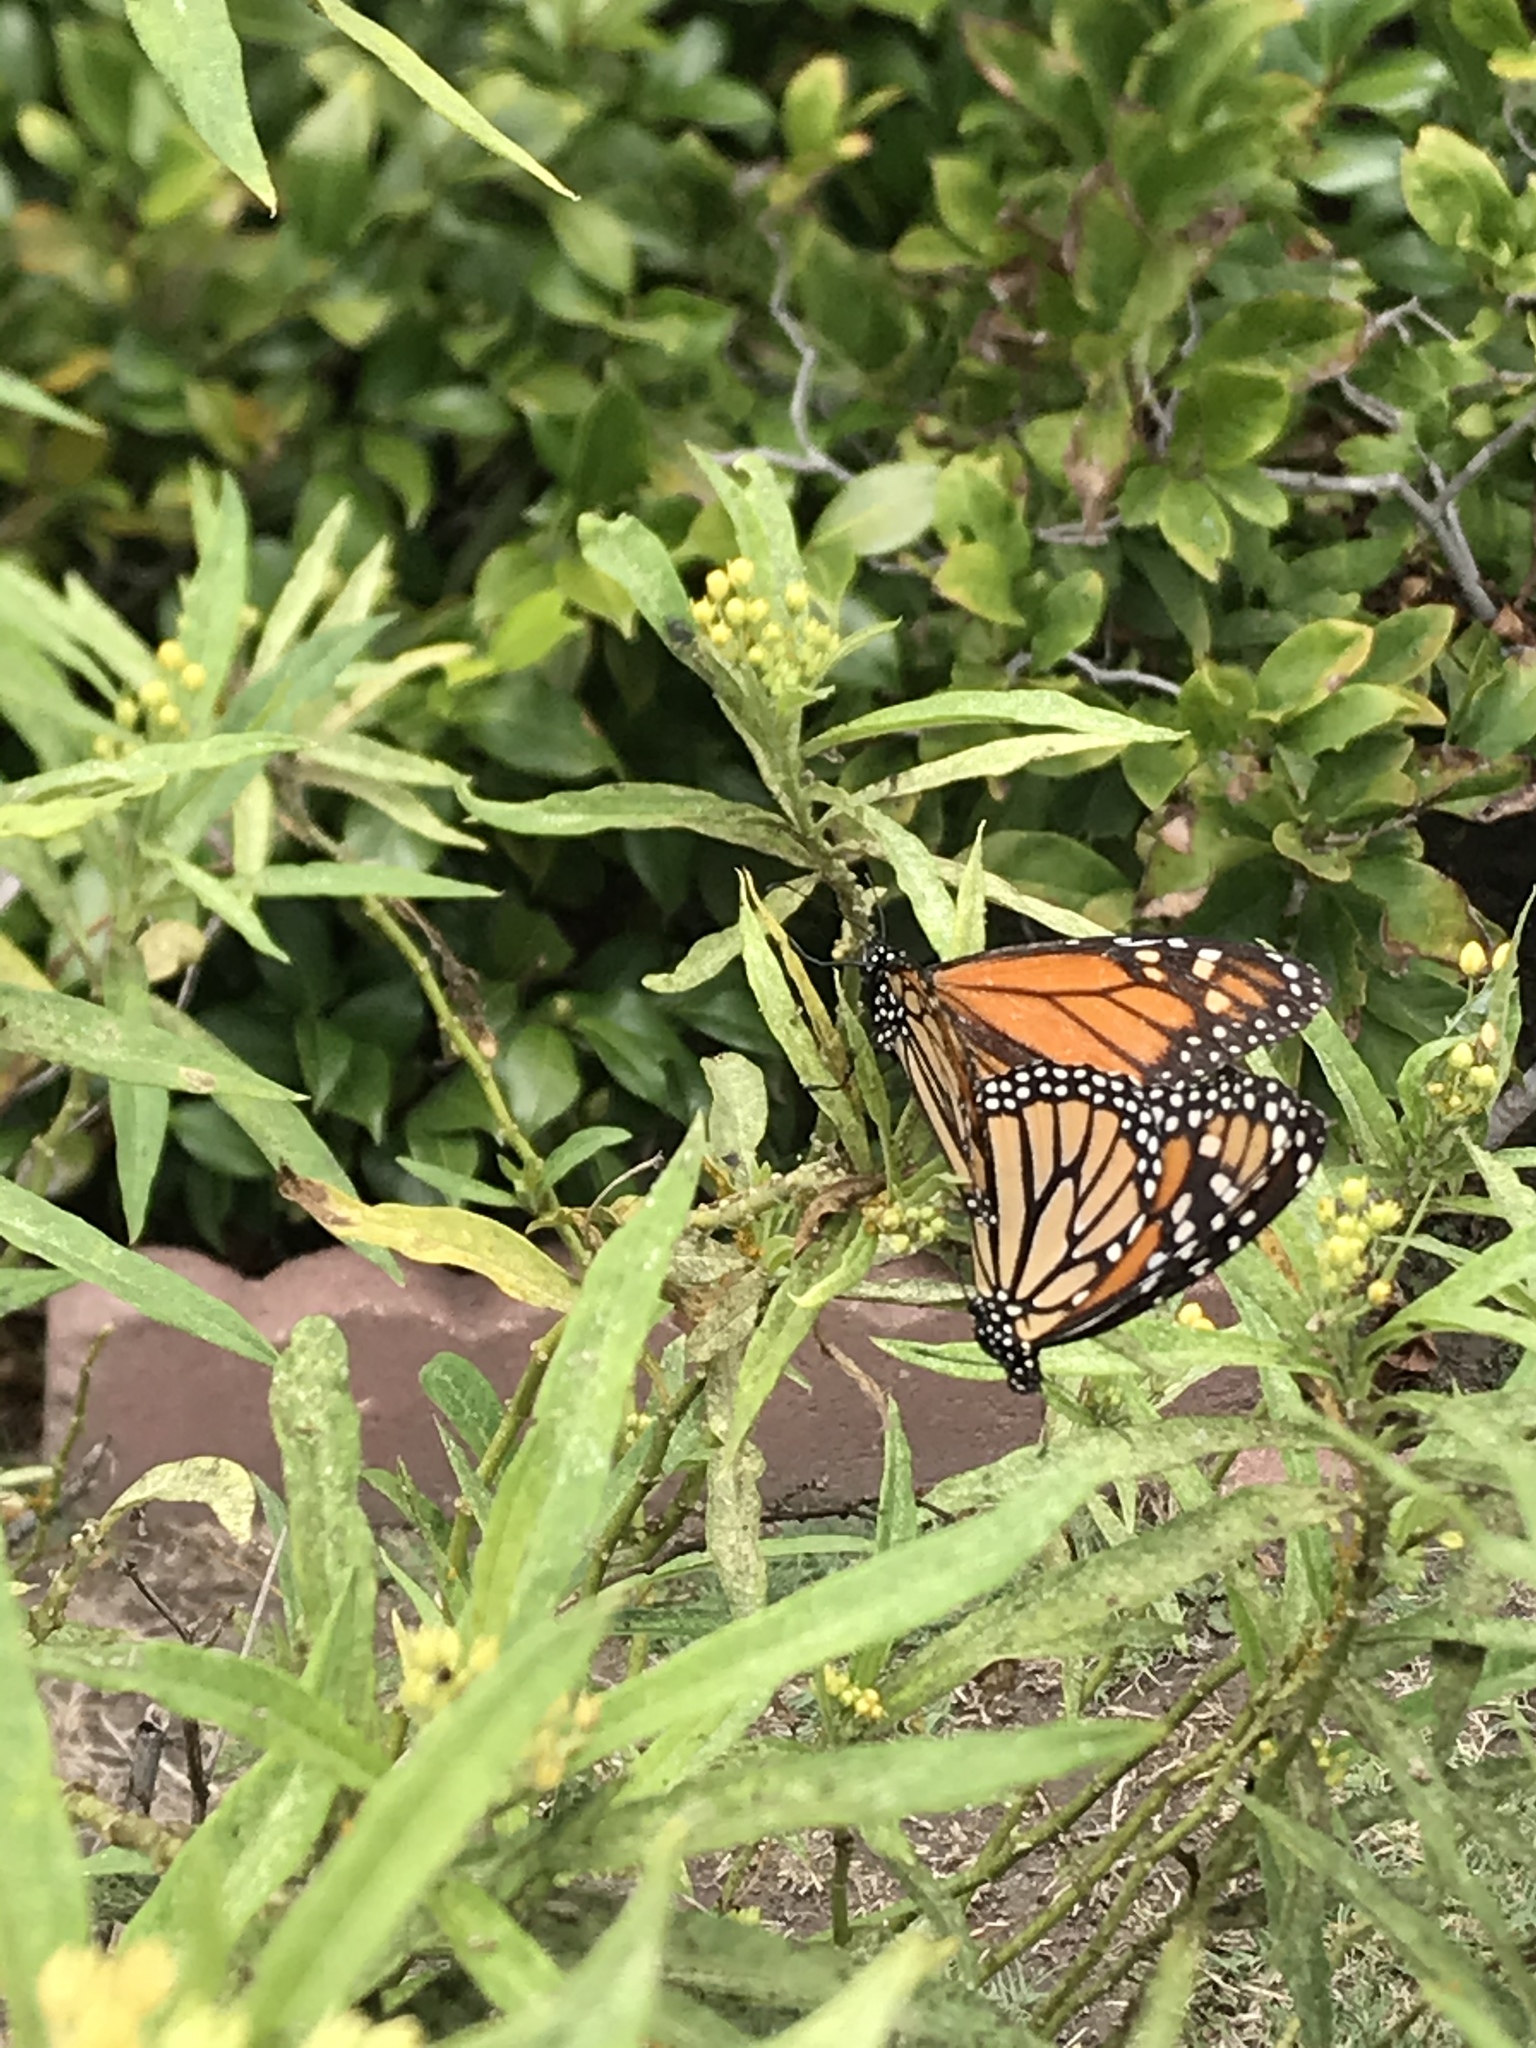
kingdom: Animalia
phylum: Arthropoda
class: Insecta
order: Lepidoptera
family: Nymphalidae
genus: Danaus
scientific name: Danaus plexippus
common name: Monarch
